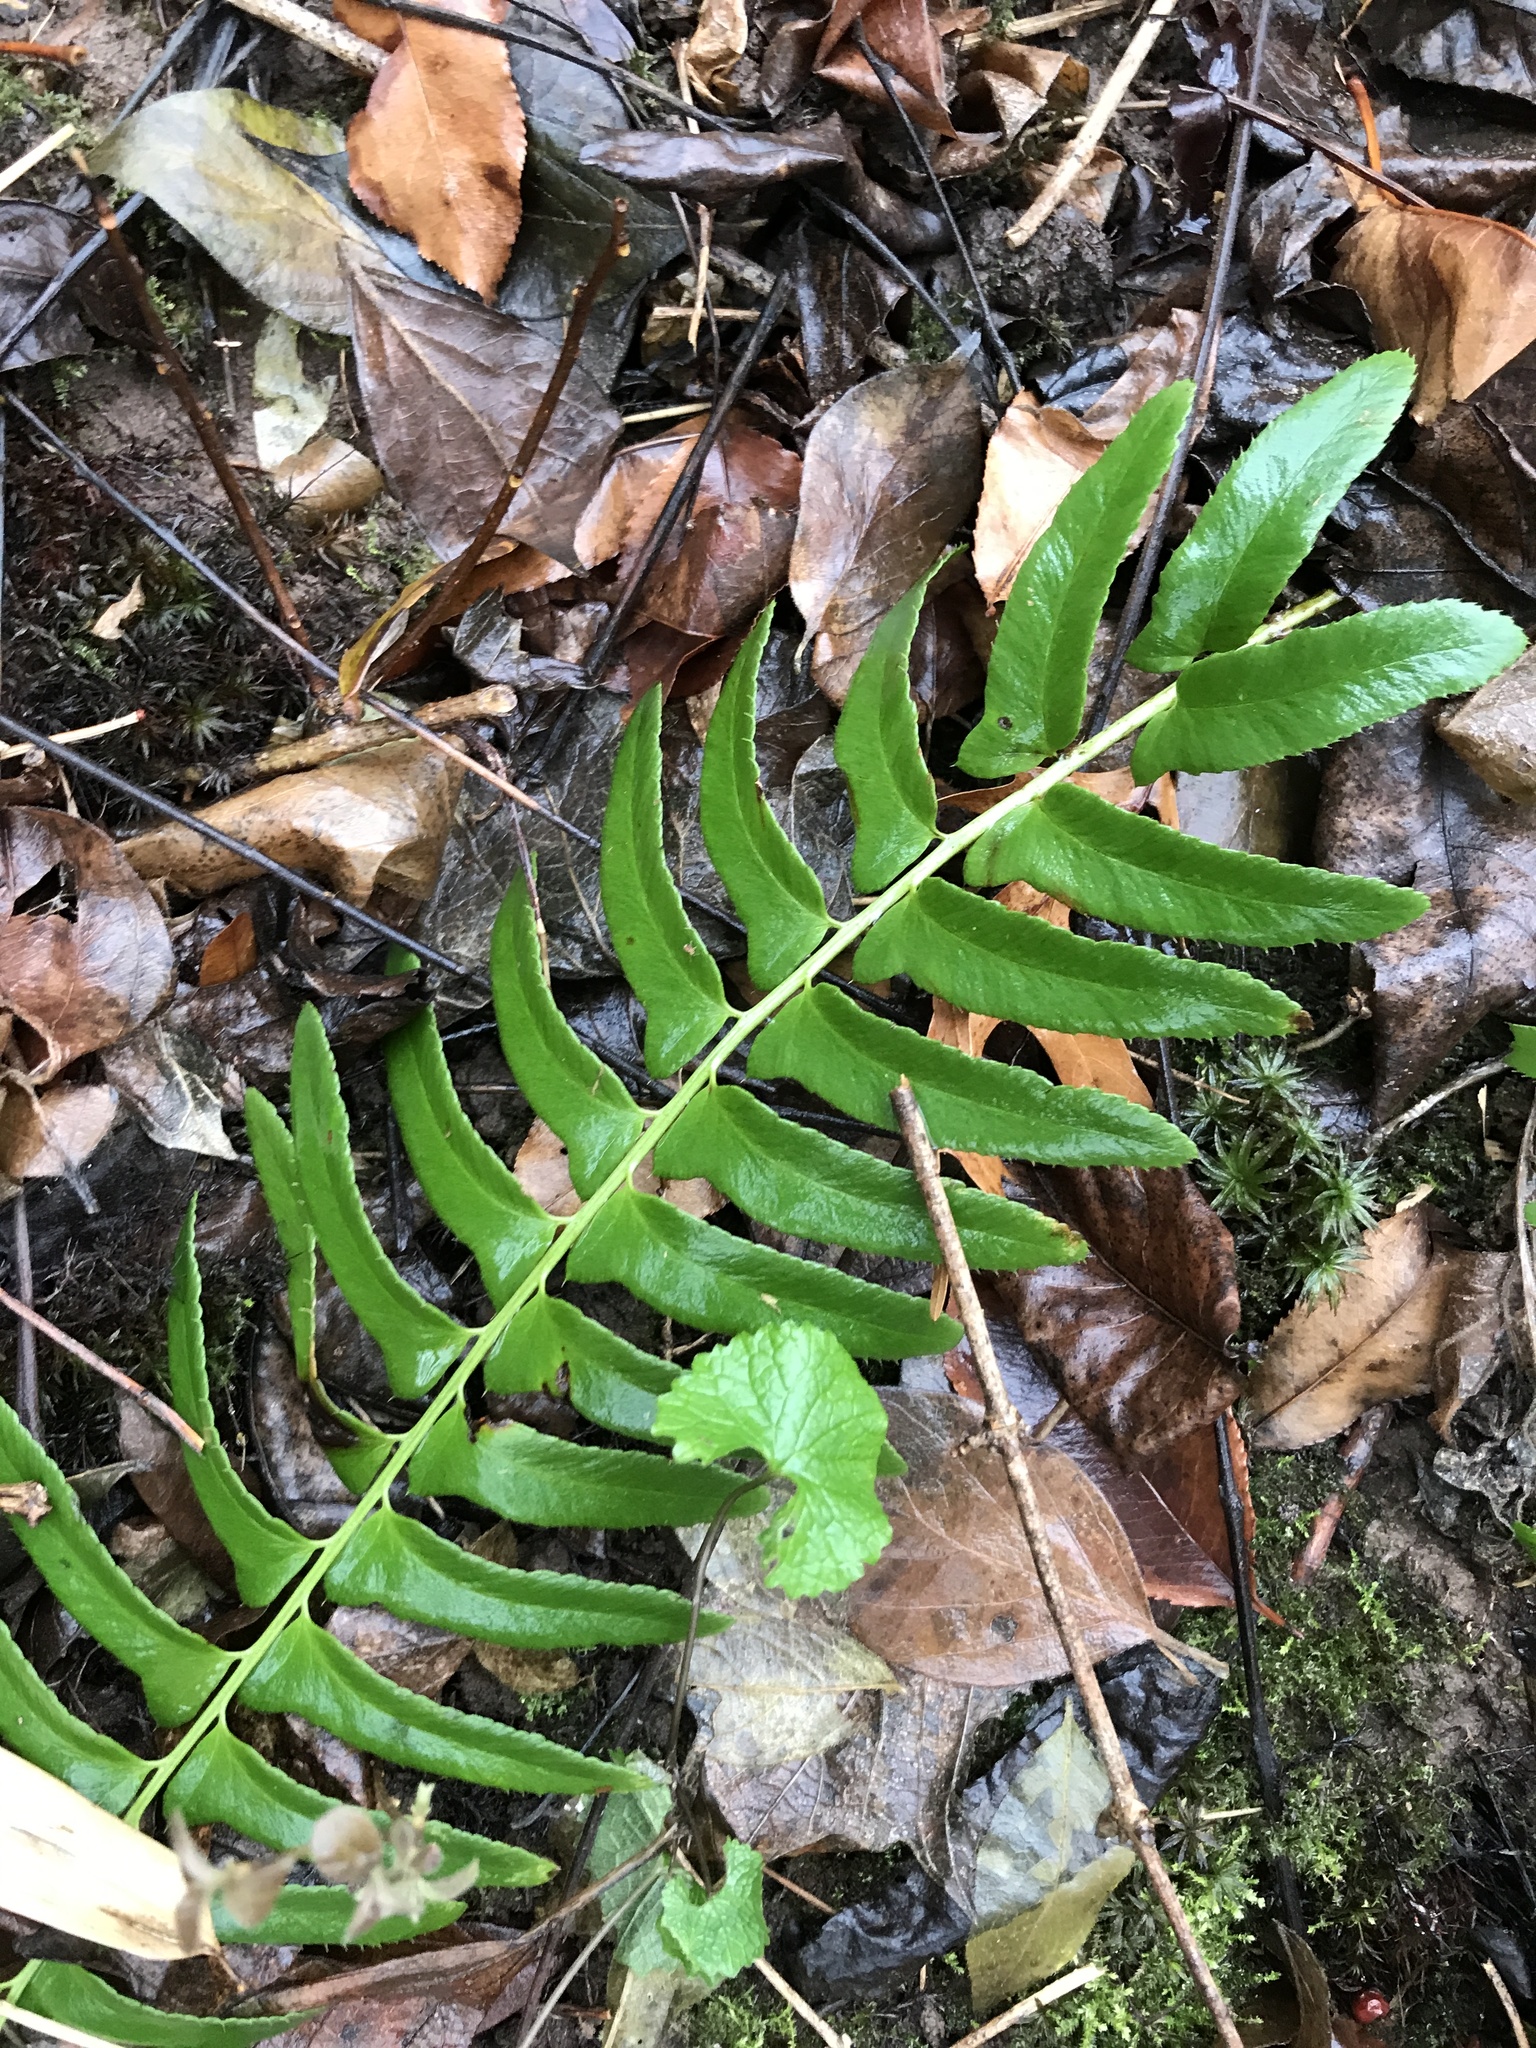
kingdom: Plantae
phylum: Tracheophyta
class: Polypodiopsida
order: Polypodiales
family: Dryopteridaceae
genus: Polystichum
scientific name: Polystichum acrostichoides
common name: Christmas fern
